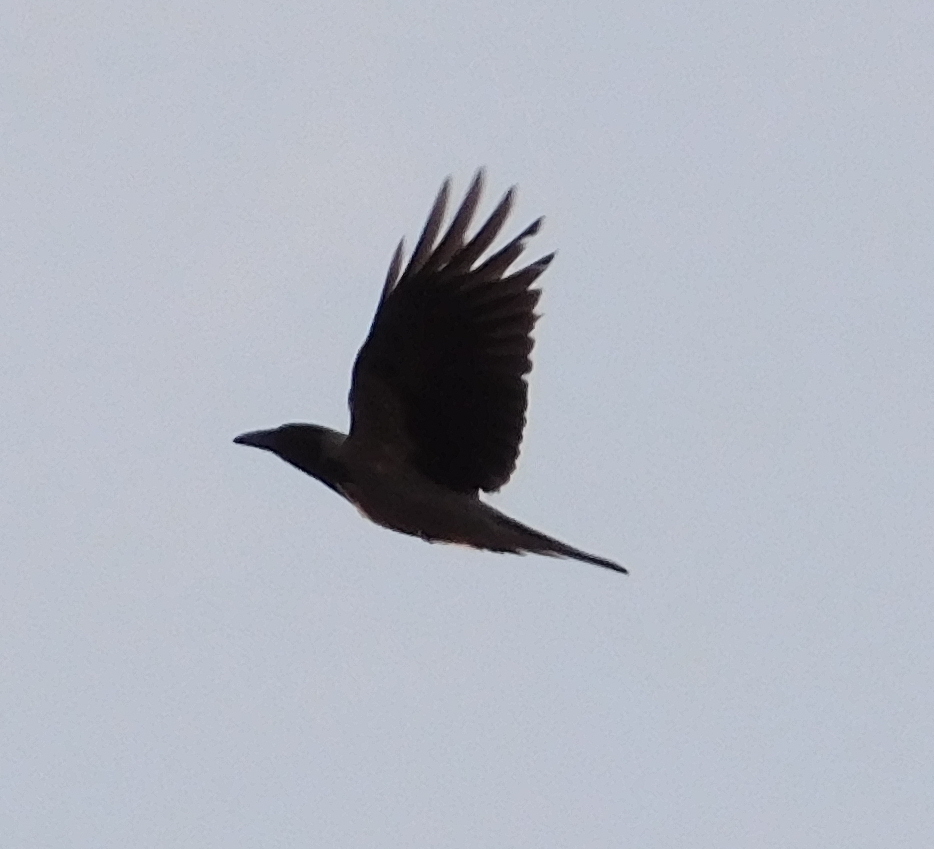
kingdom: Animalia
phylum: Chordata
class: Aves
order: Passeriformes
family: Corvidae
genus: Corvus
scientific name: Corvus corax
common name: Common raven
